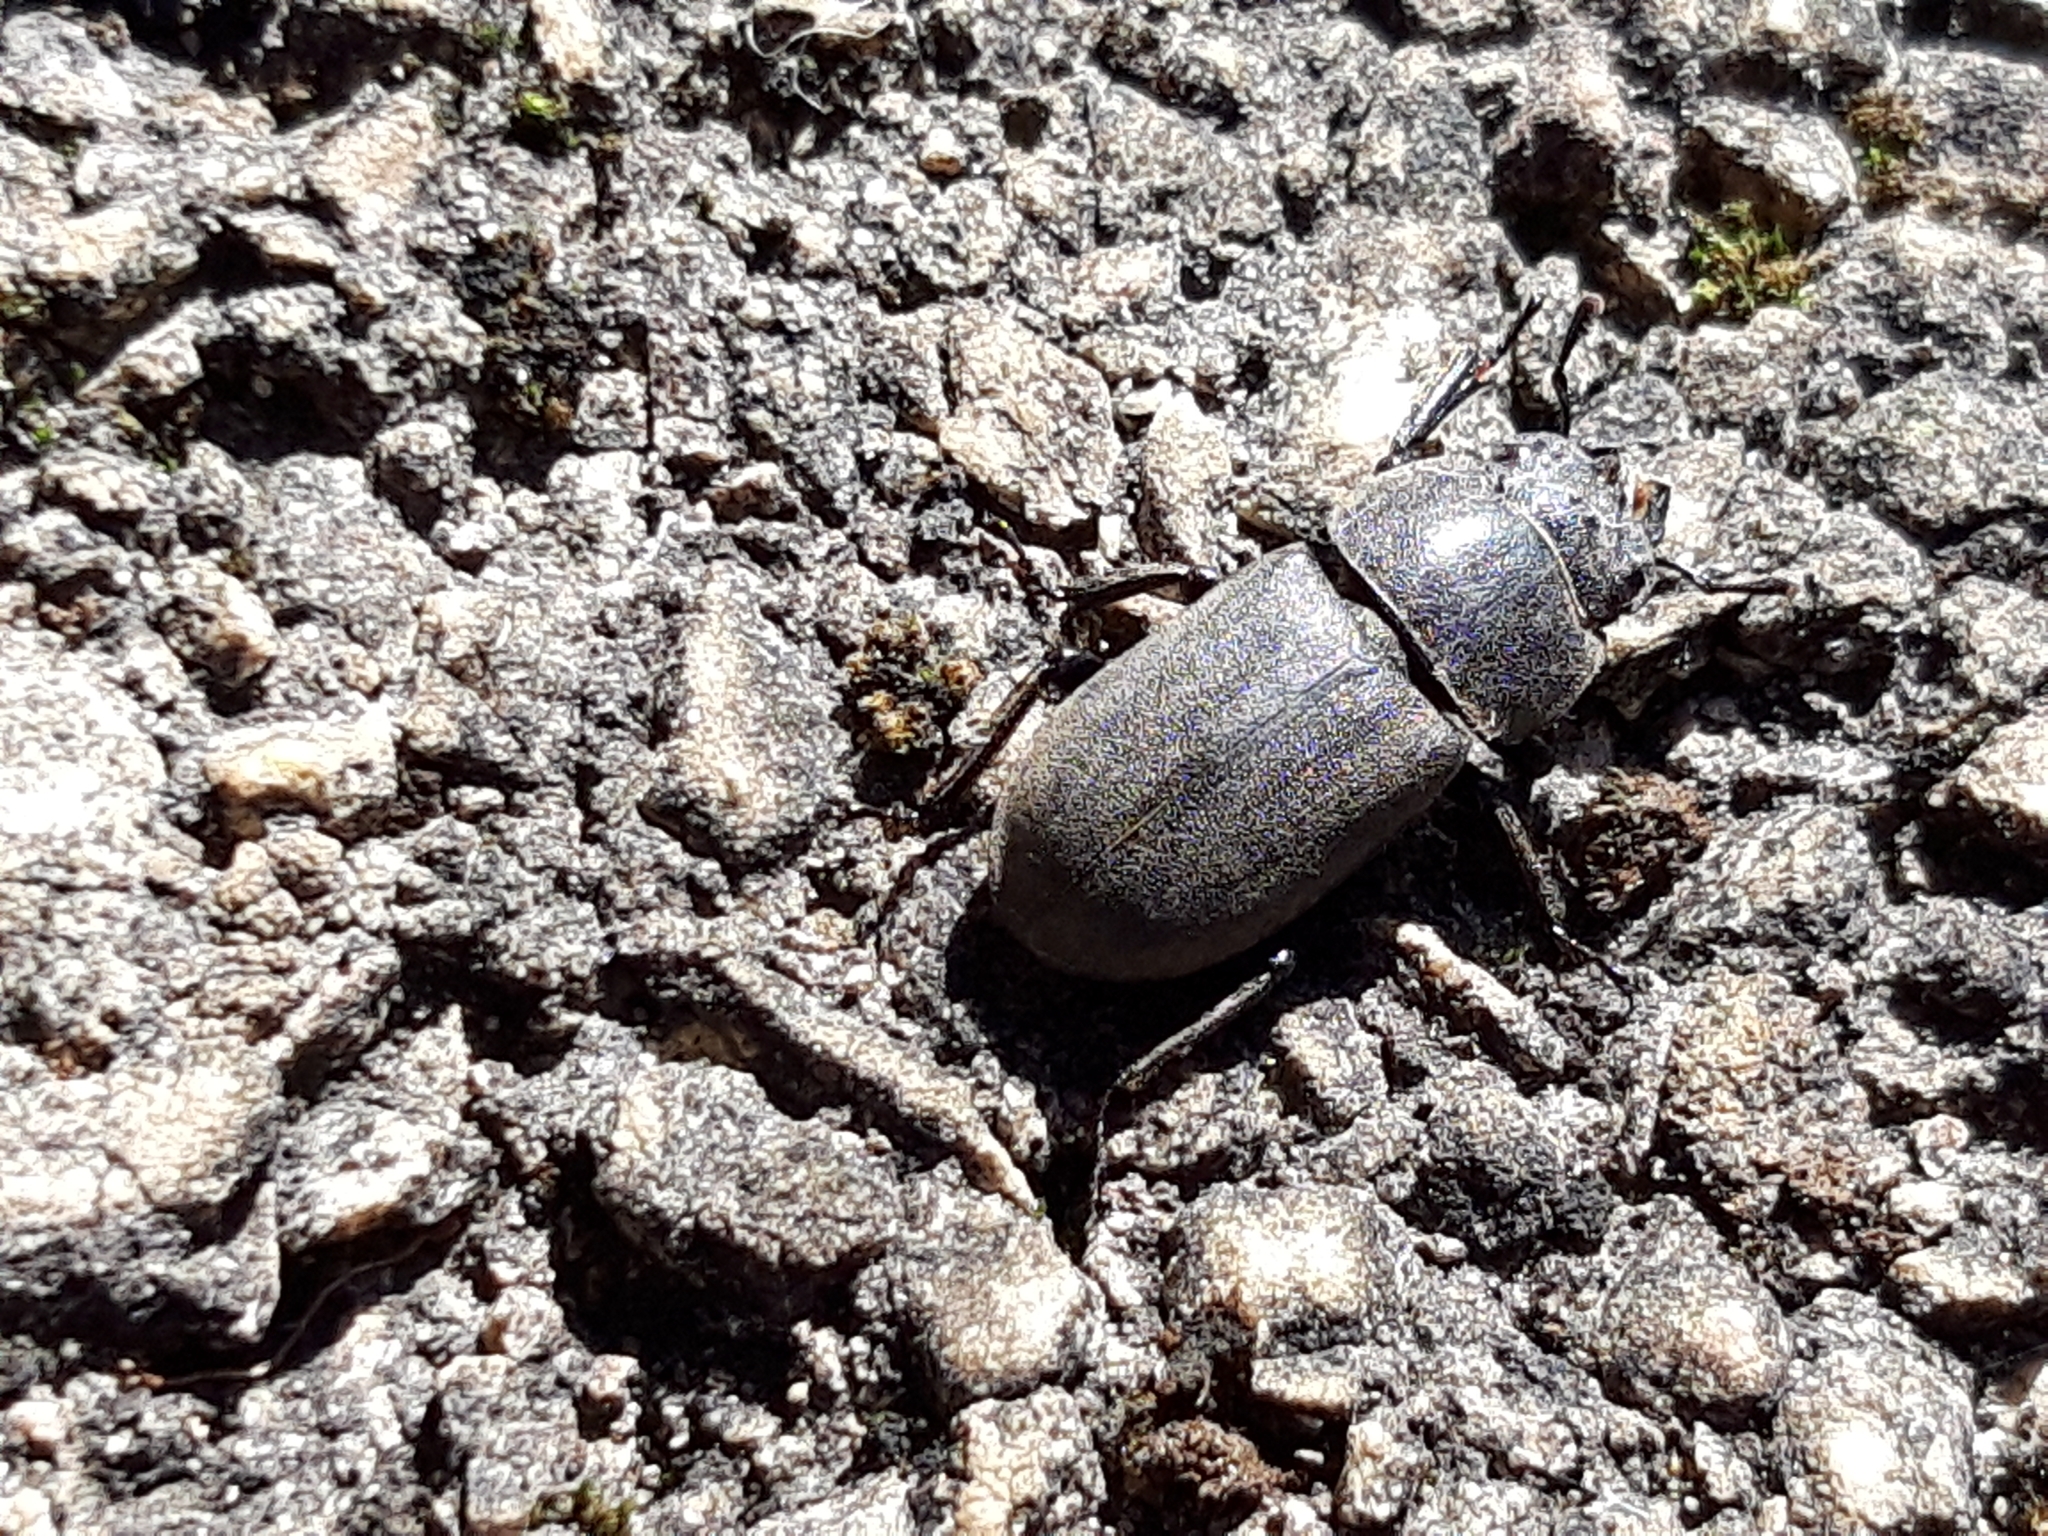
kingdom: Animalia
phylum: Arthropoda
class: Insecta
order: Coleoptera
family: Lucanidae
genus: Dorcus
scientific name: Dorcus parallelipipedus
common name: Lesser stag beetle
